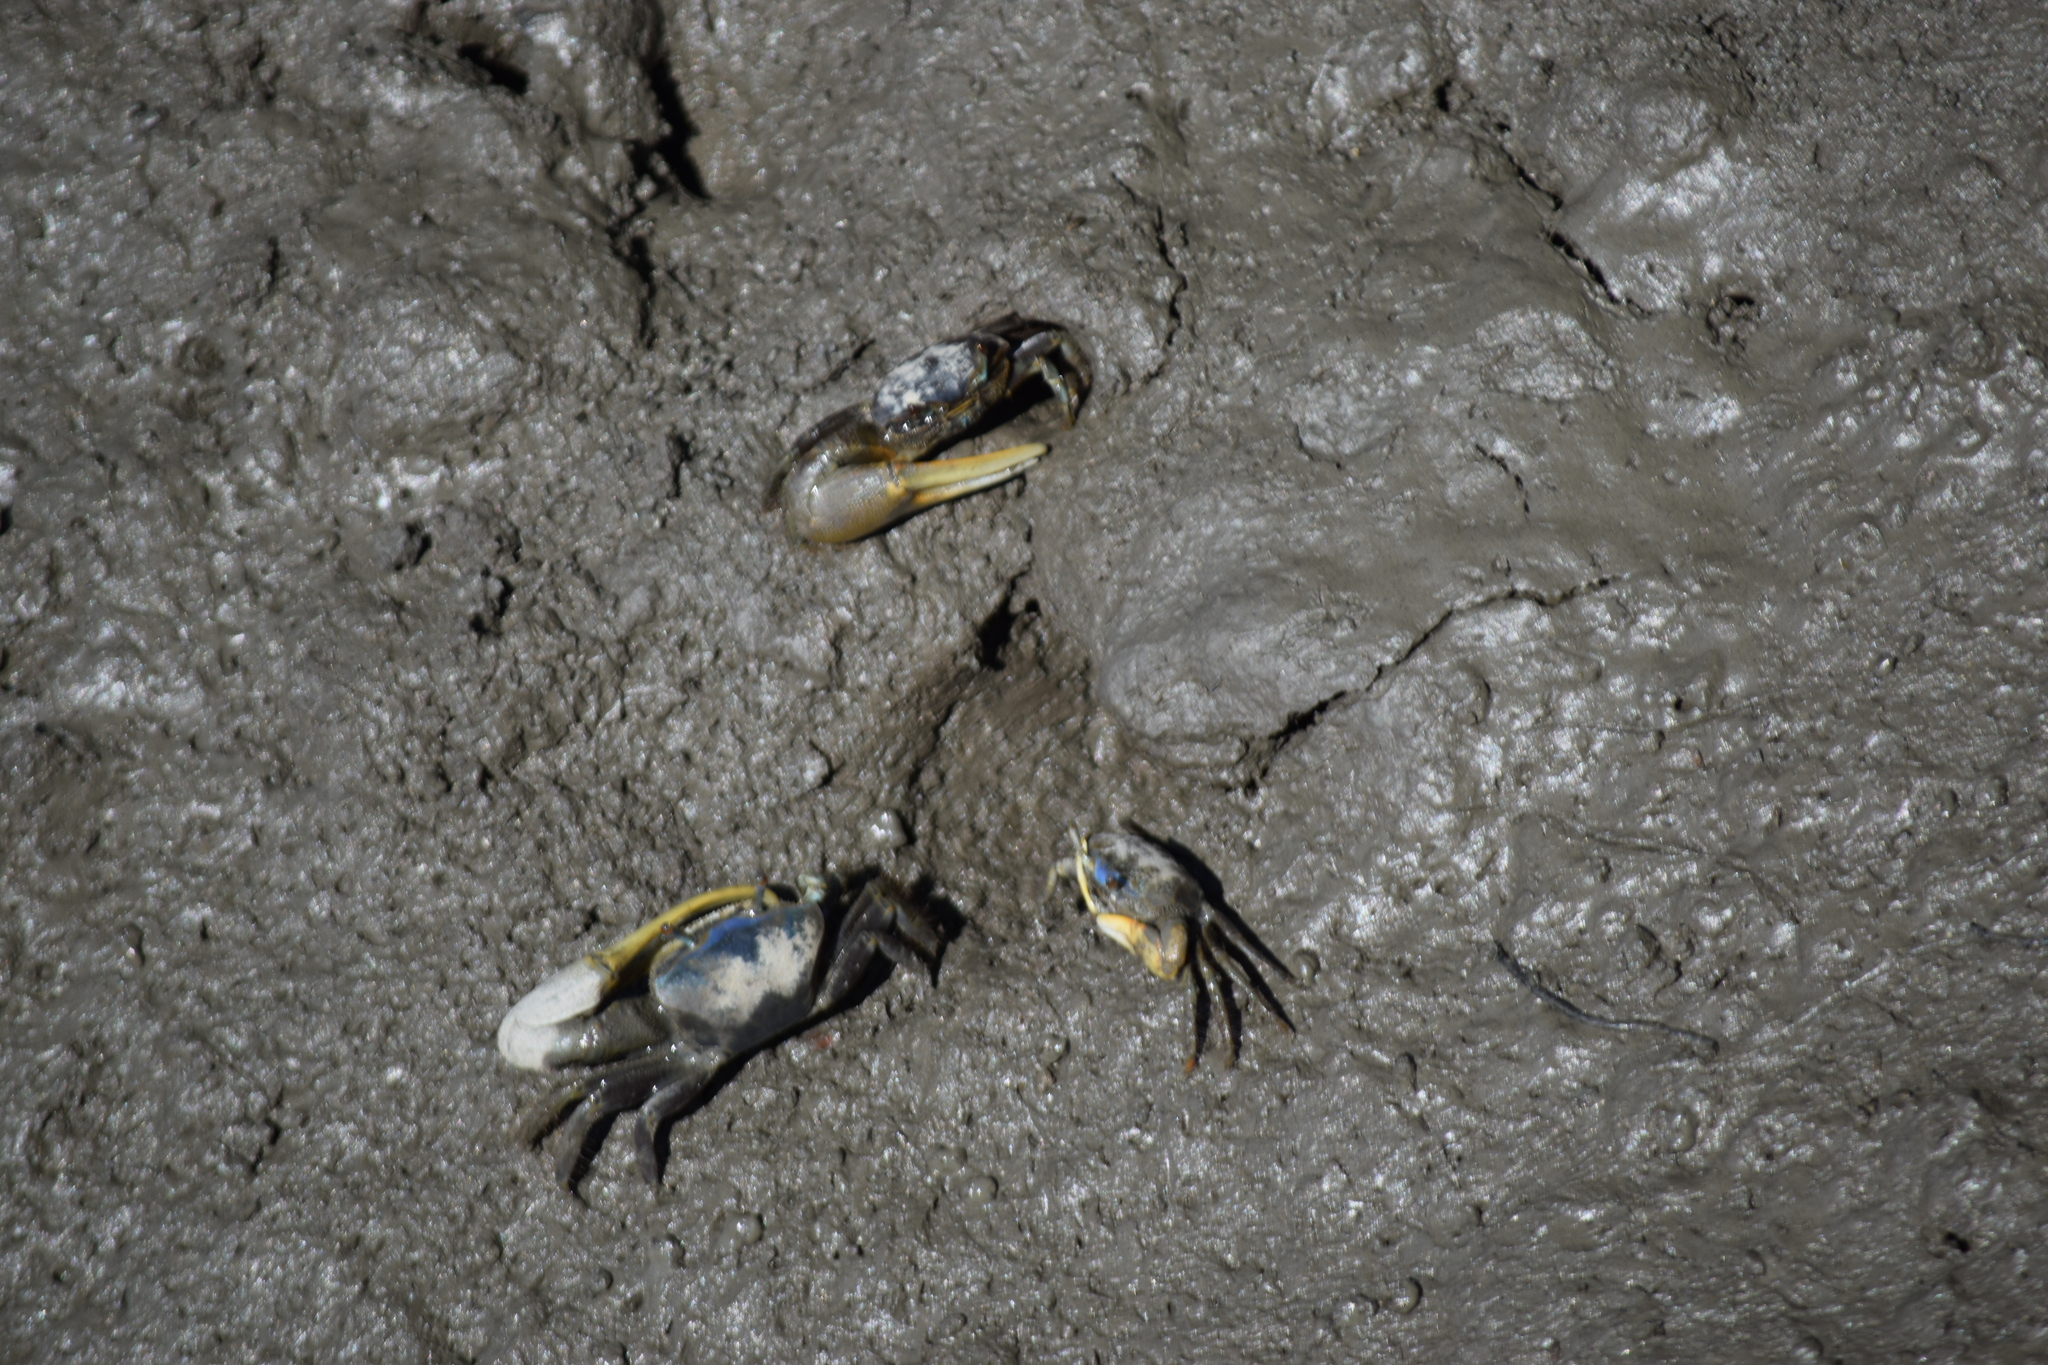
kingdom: Animalia
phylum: Arthropoda
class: Malacostraca
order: Decapoda
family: Ocypodidae
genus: Minuca
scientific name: Minuca pugnax
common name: Mud fiddler crab
